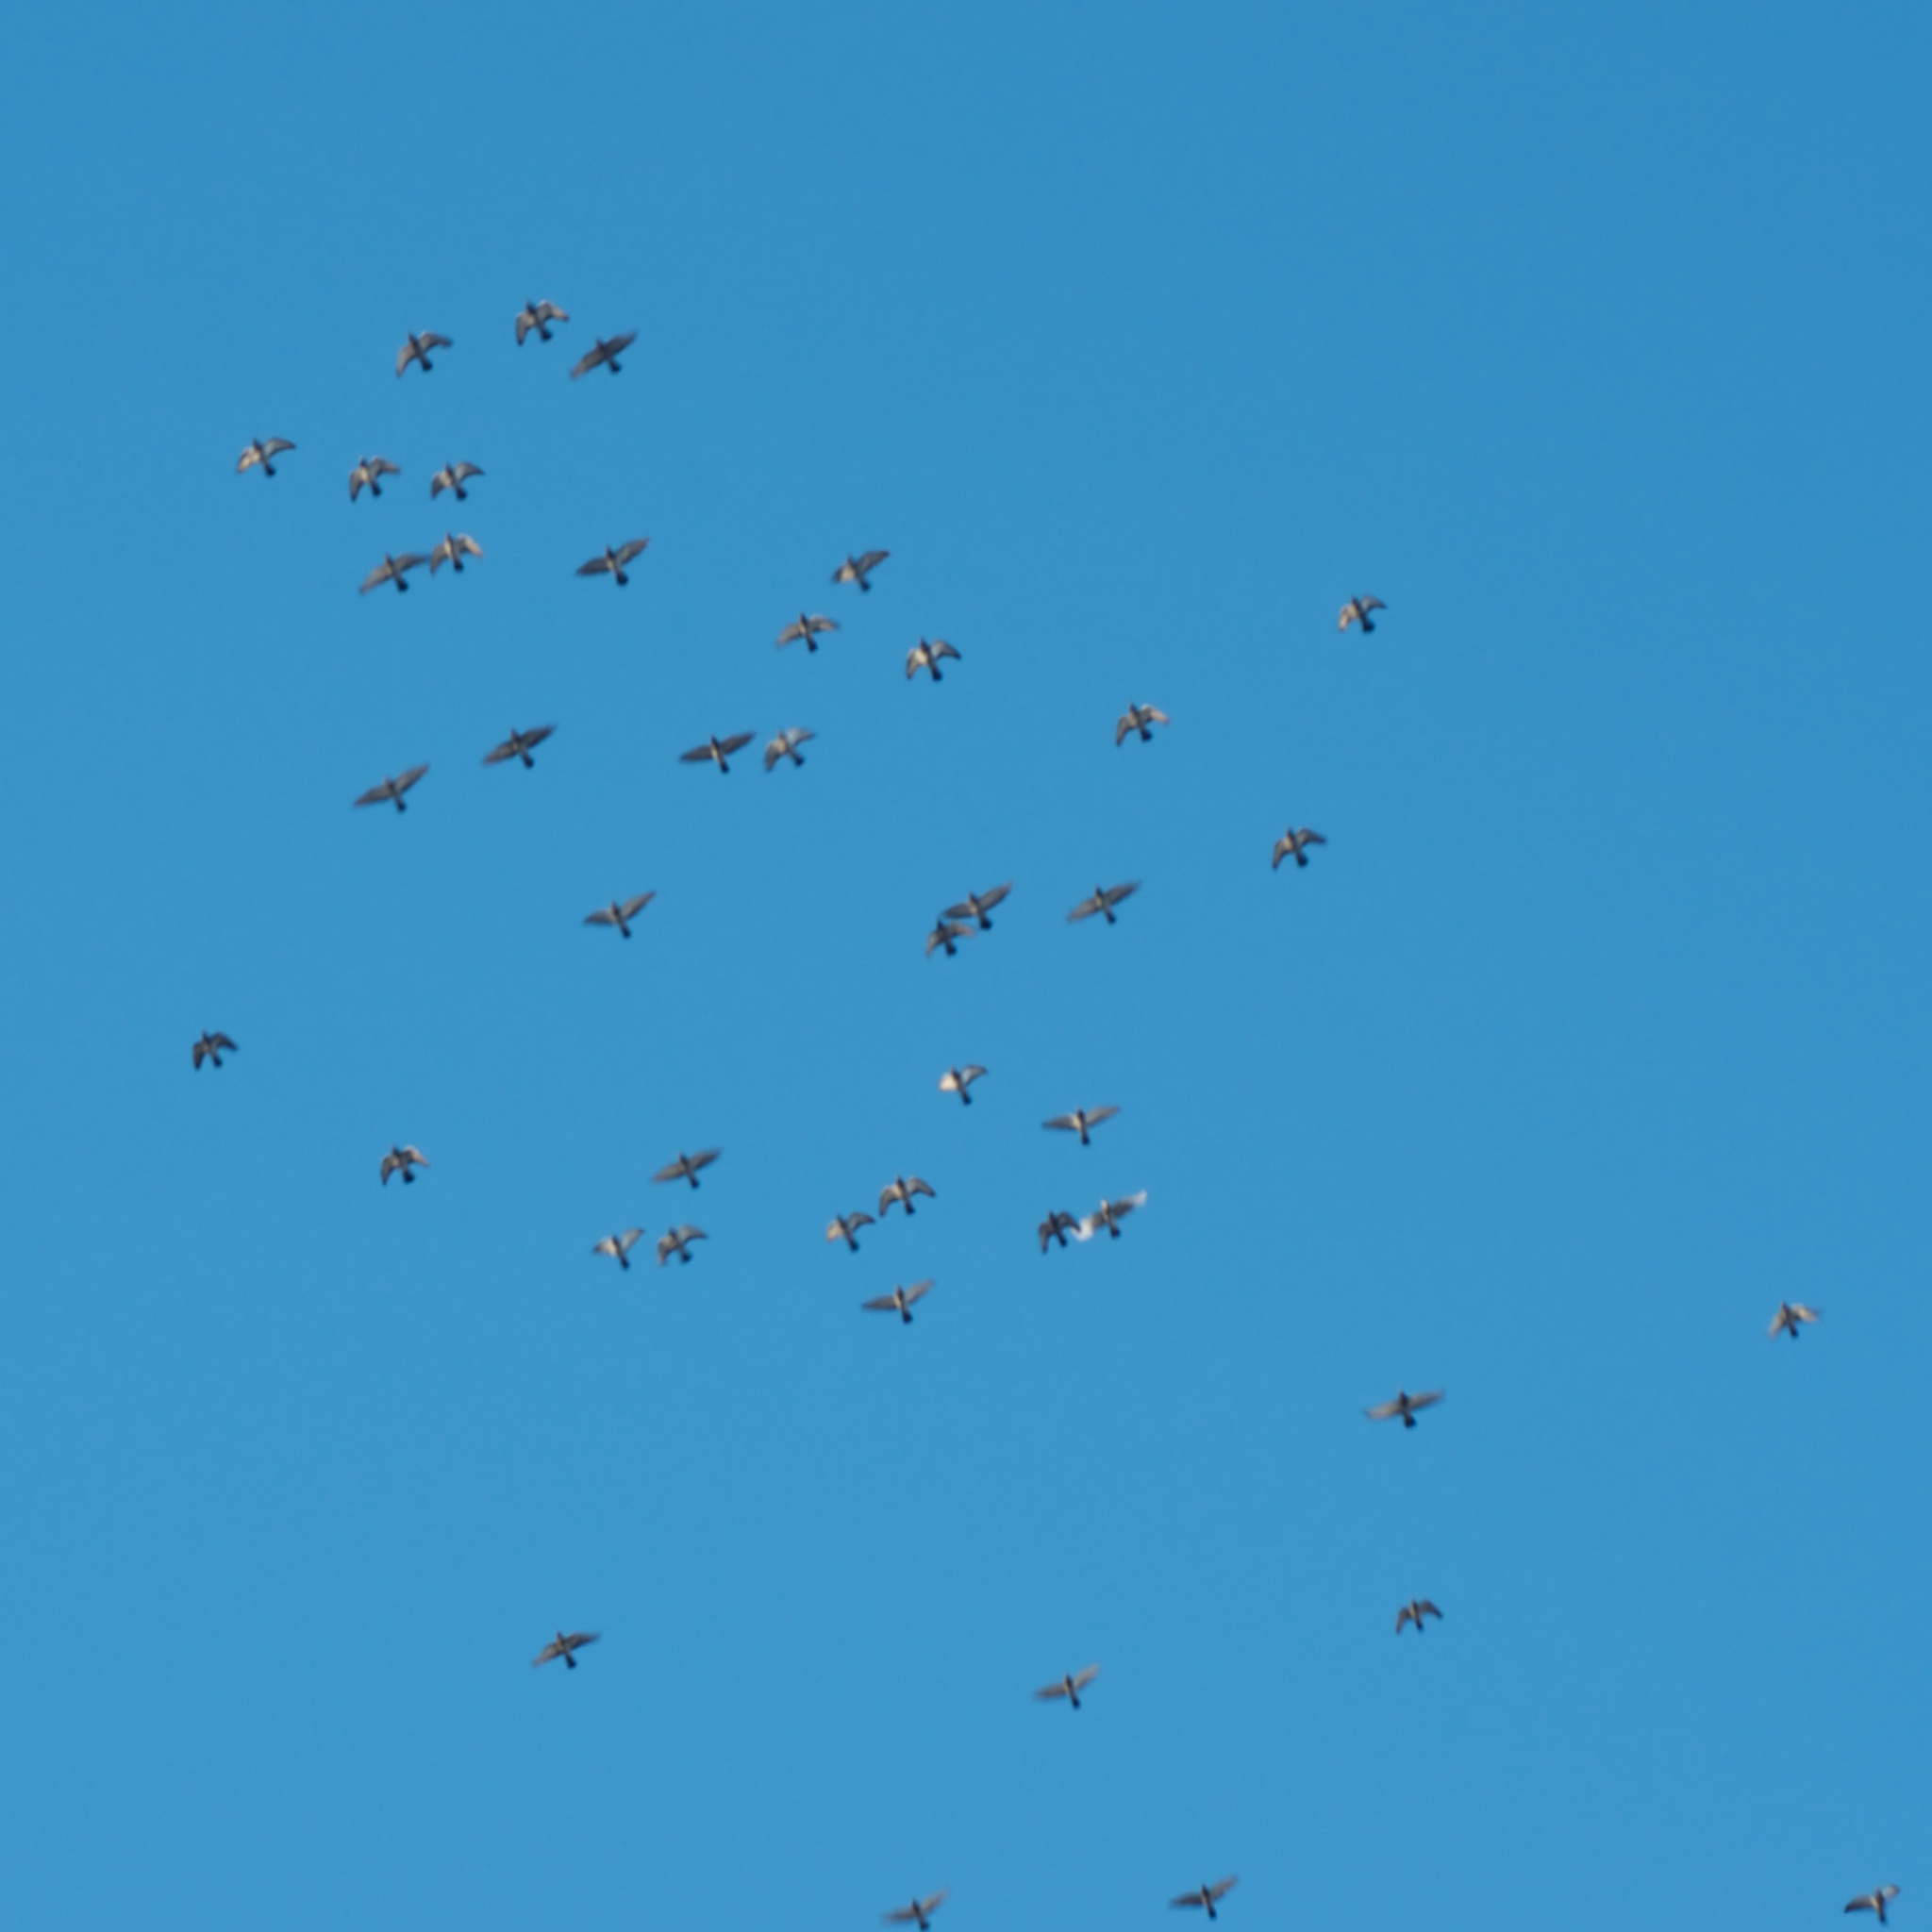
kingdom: Animalia
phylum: Chordata
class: Aves
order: Columbiformes
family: Columbidae
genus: Columba
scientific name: Columba livia
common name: Rock pigeon
